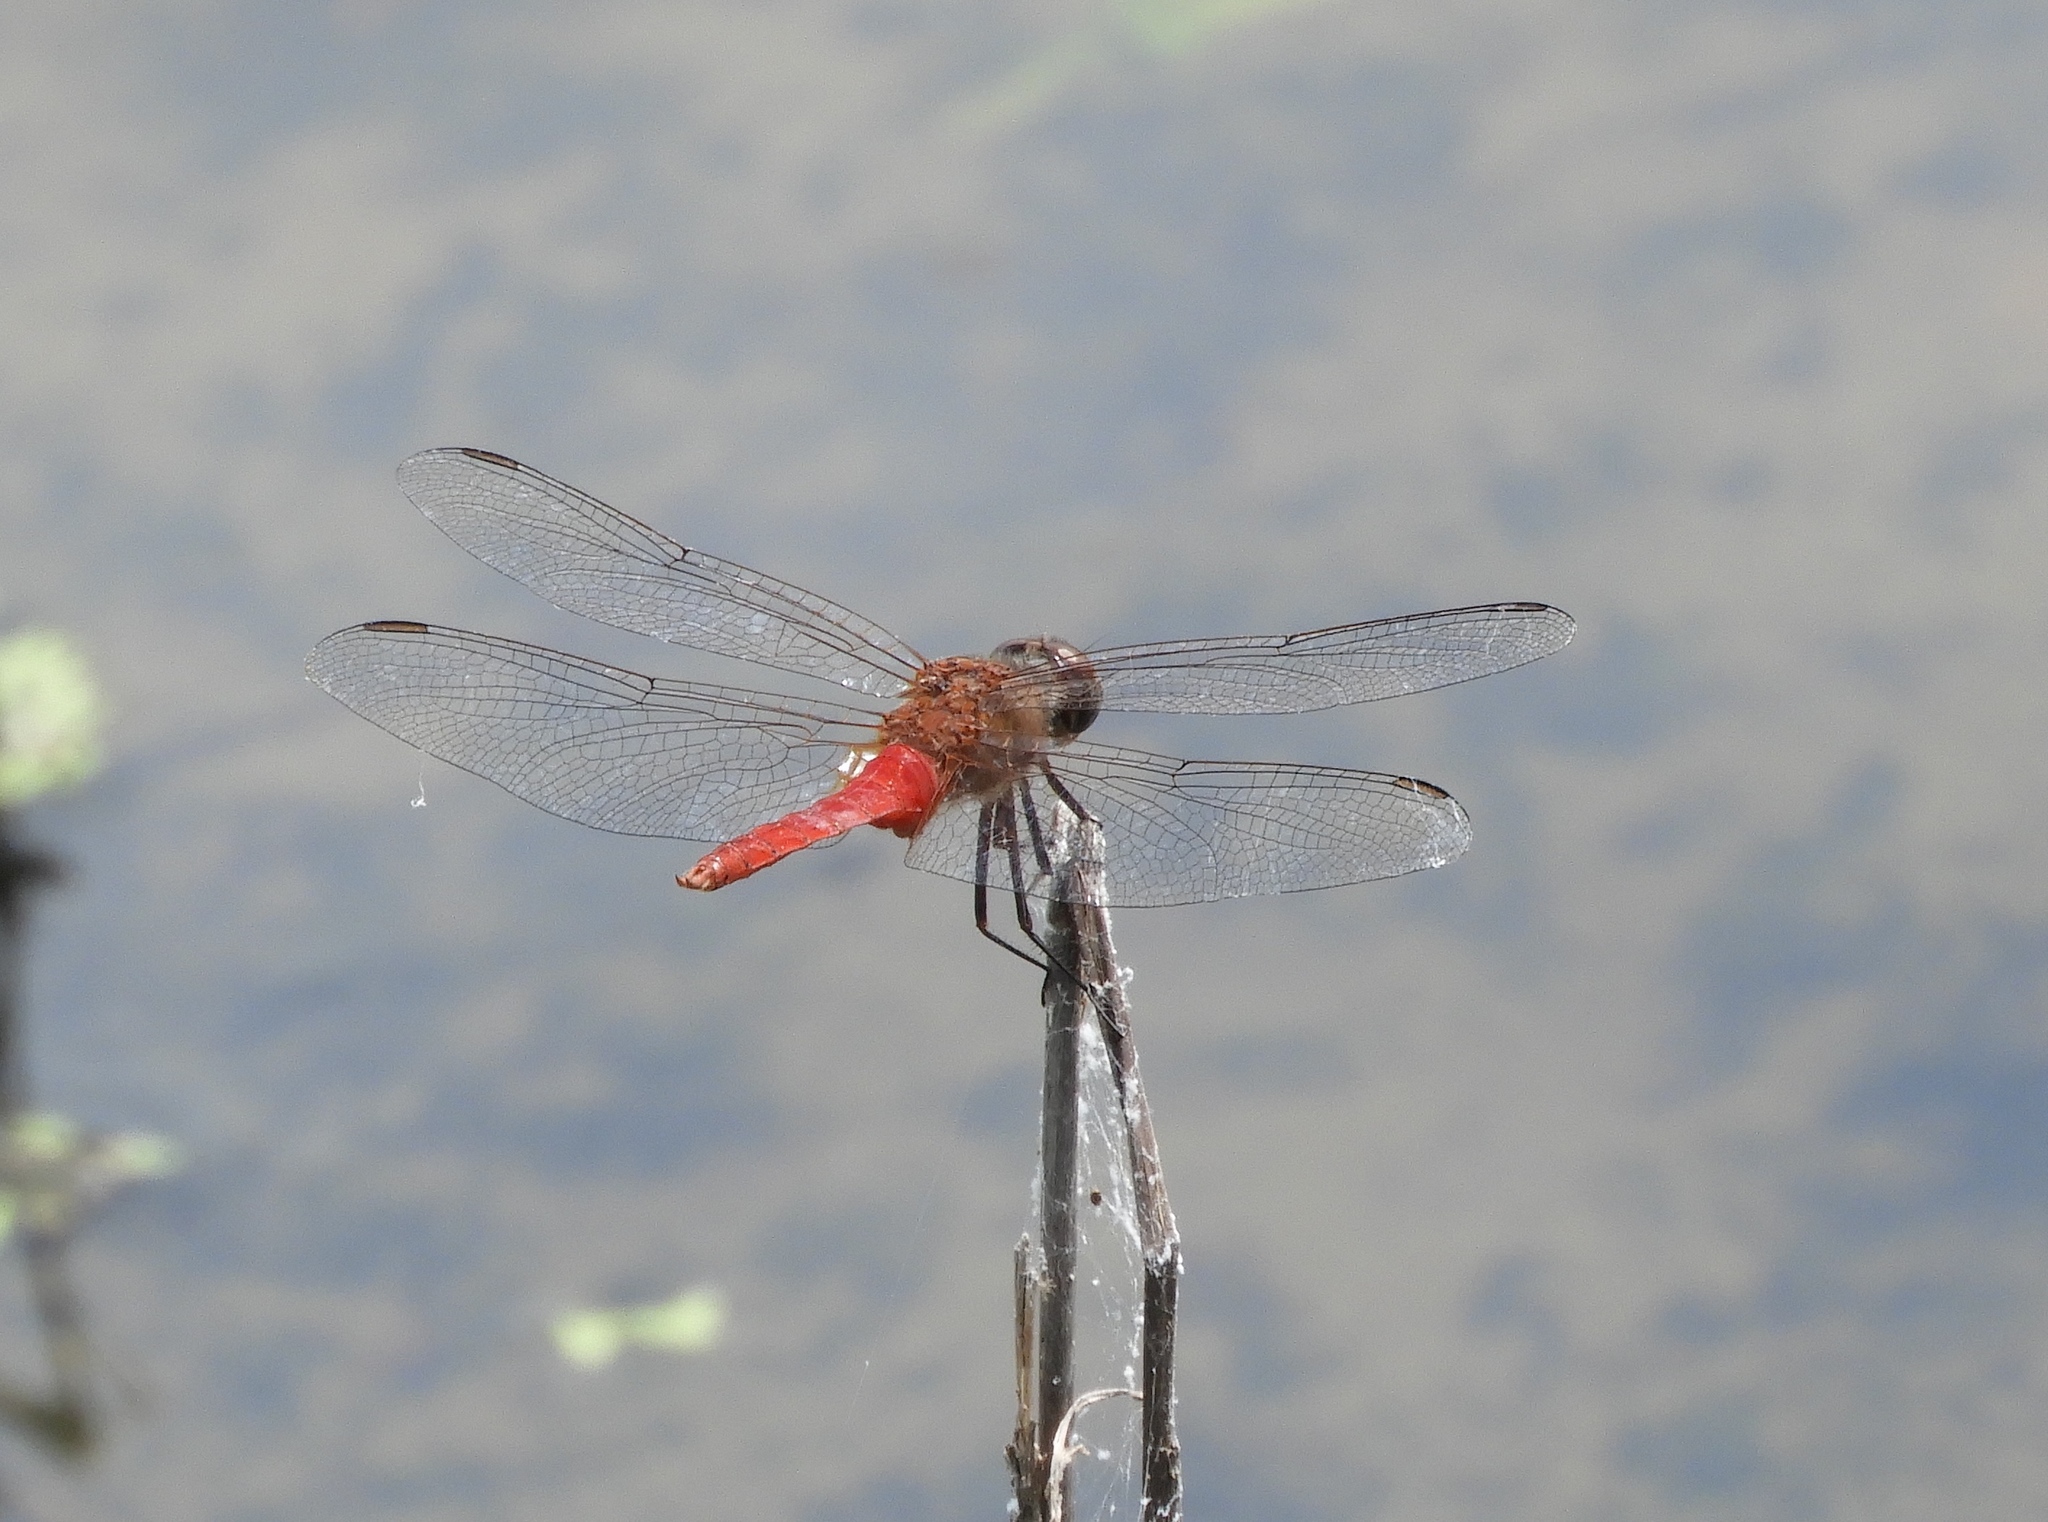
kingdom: Animalia
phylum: Arthropoda
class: Insecta
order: Odonata
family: Libellulidae
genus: Brachymesia
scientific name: Brachymesia furcata
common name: Red-taled pennant
